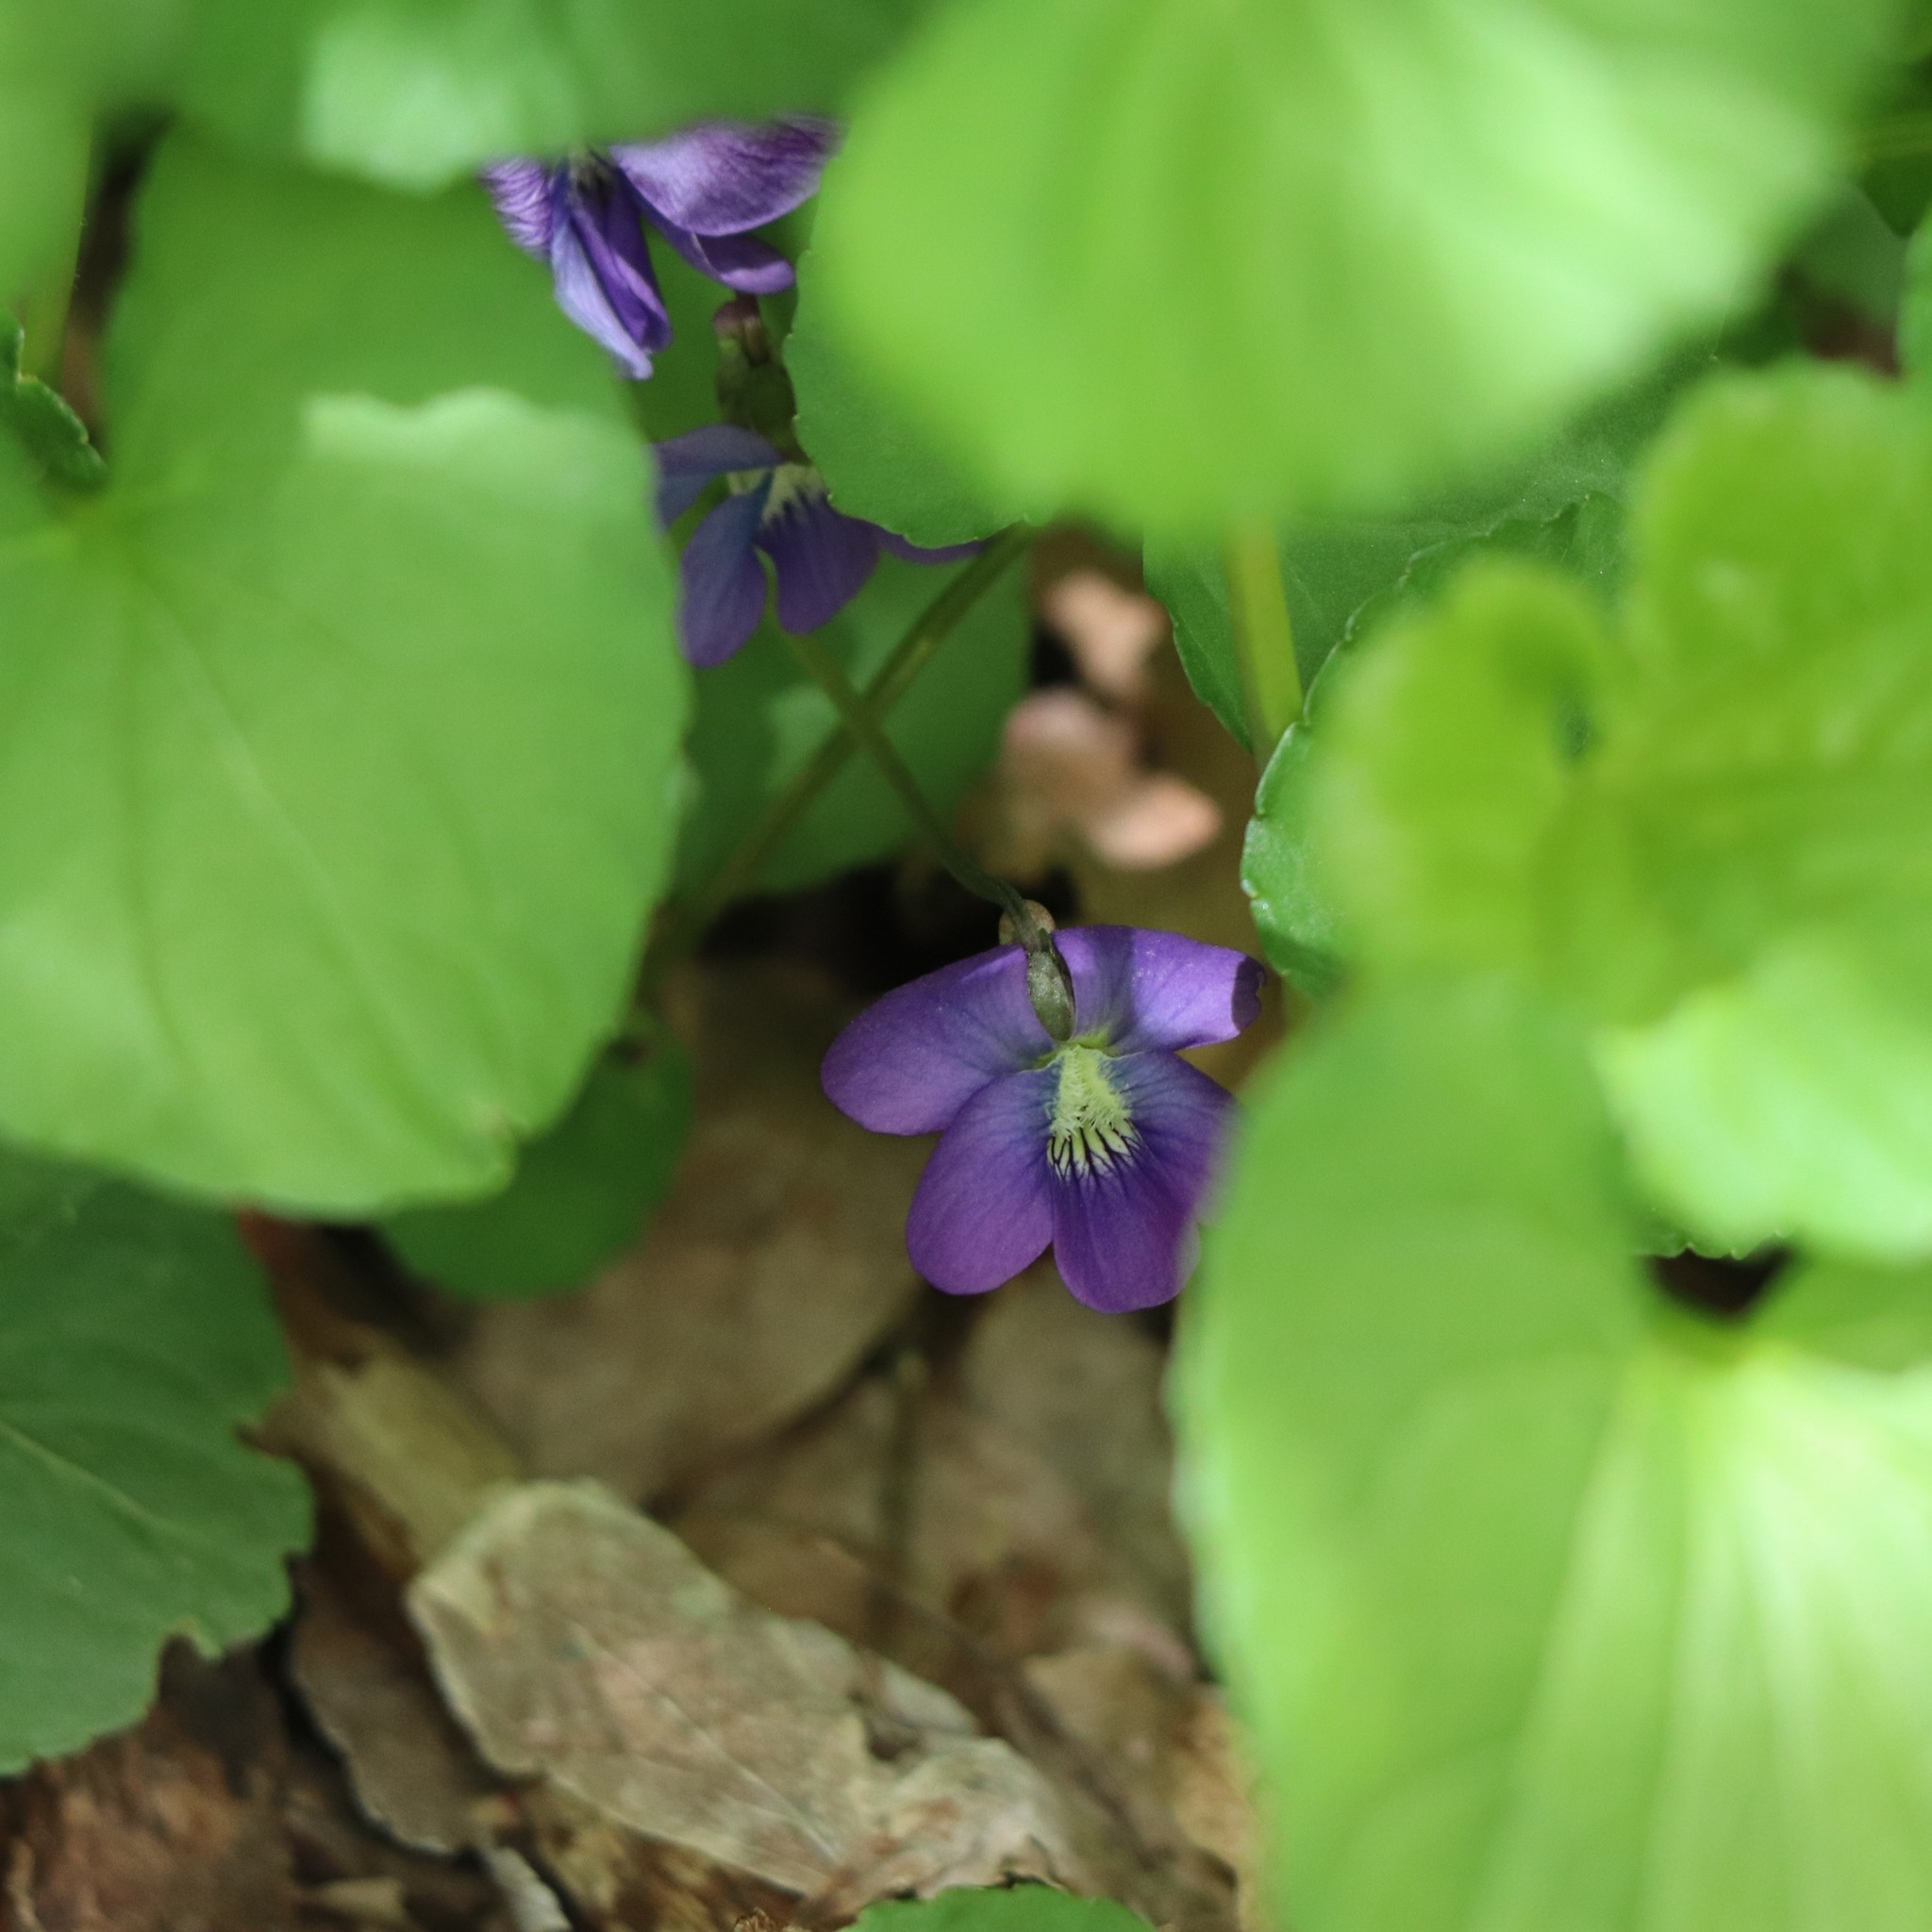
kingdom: Plantae
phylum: Tracheophyta
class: Magnoliopsida
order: Malpighiales
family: Violaceae
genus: Viola
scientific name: Viola sororia
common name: Dooryard violet
